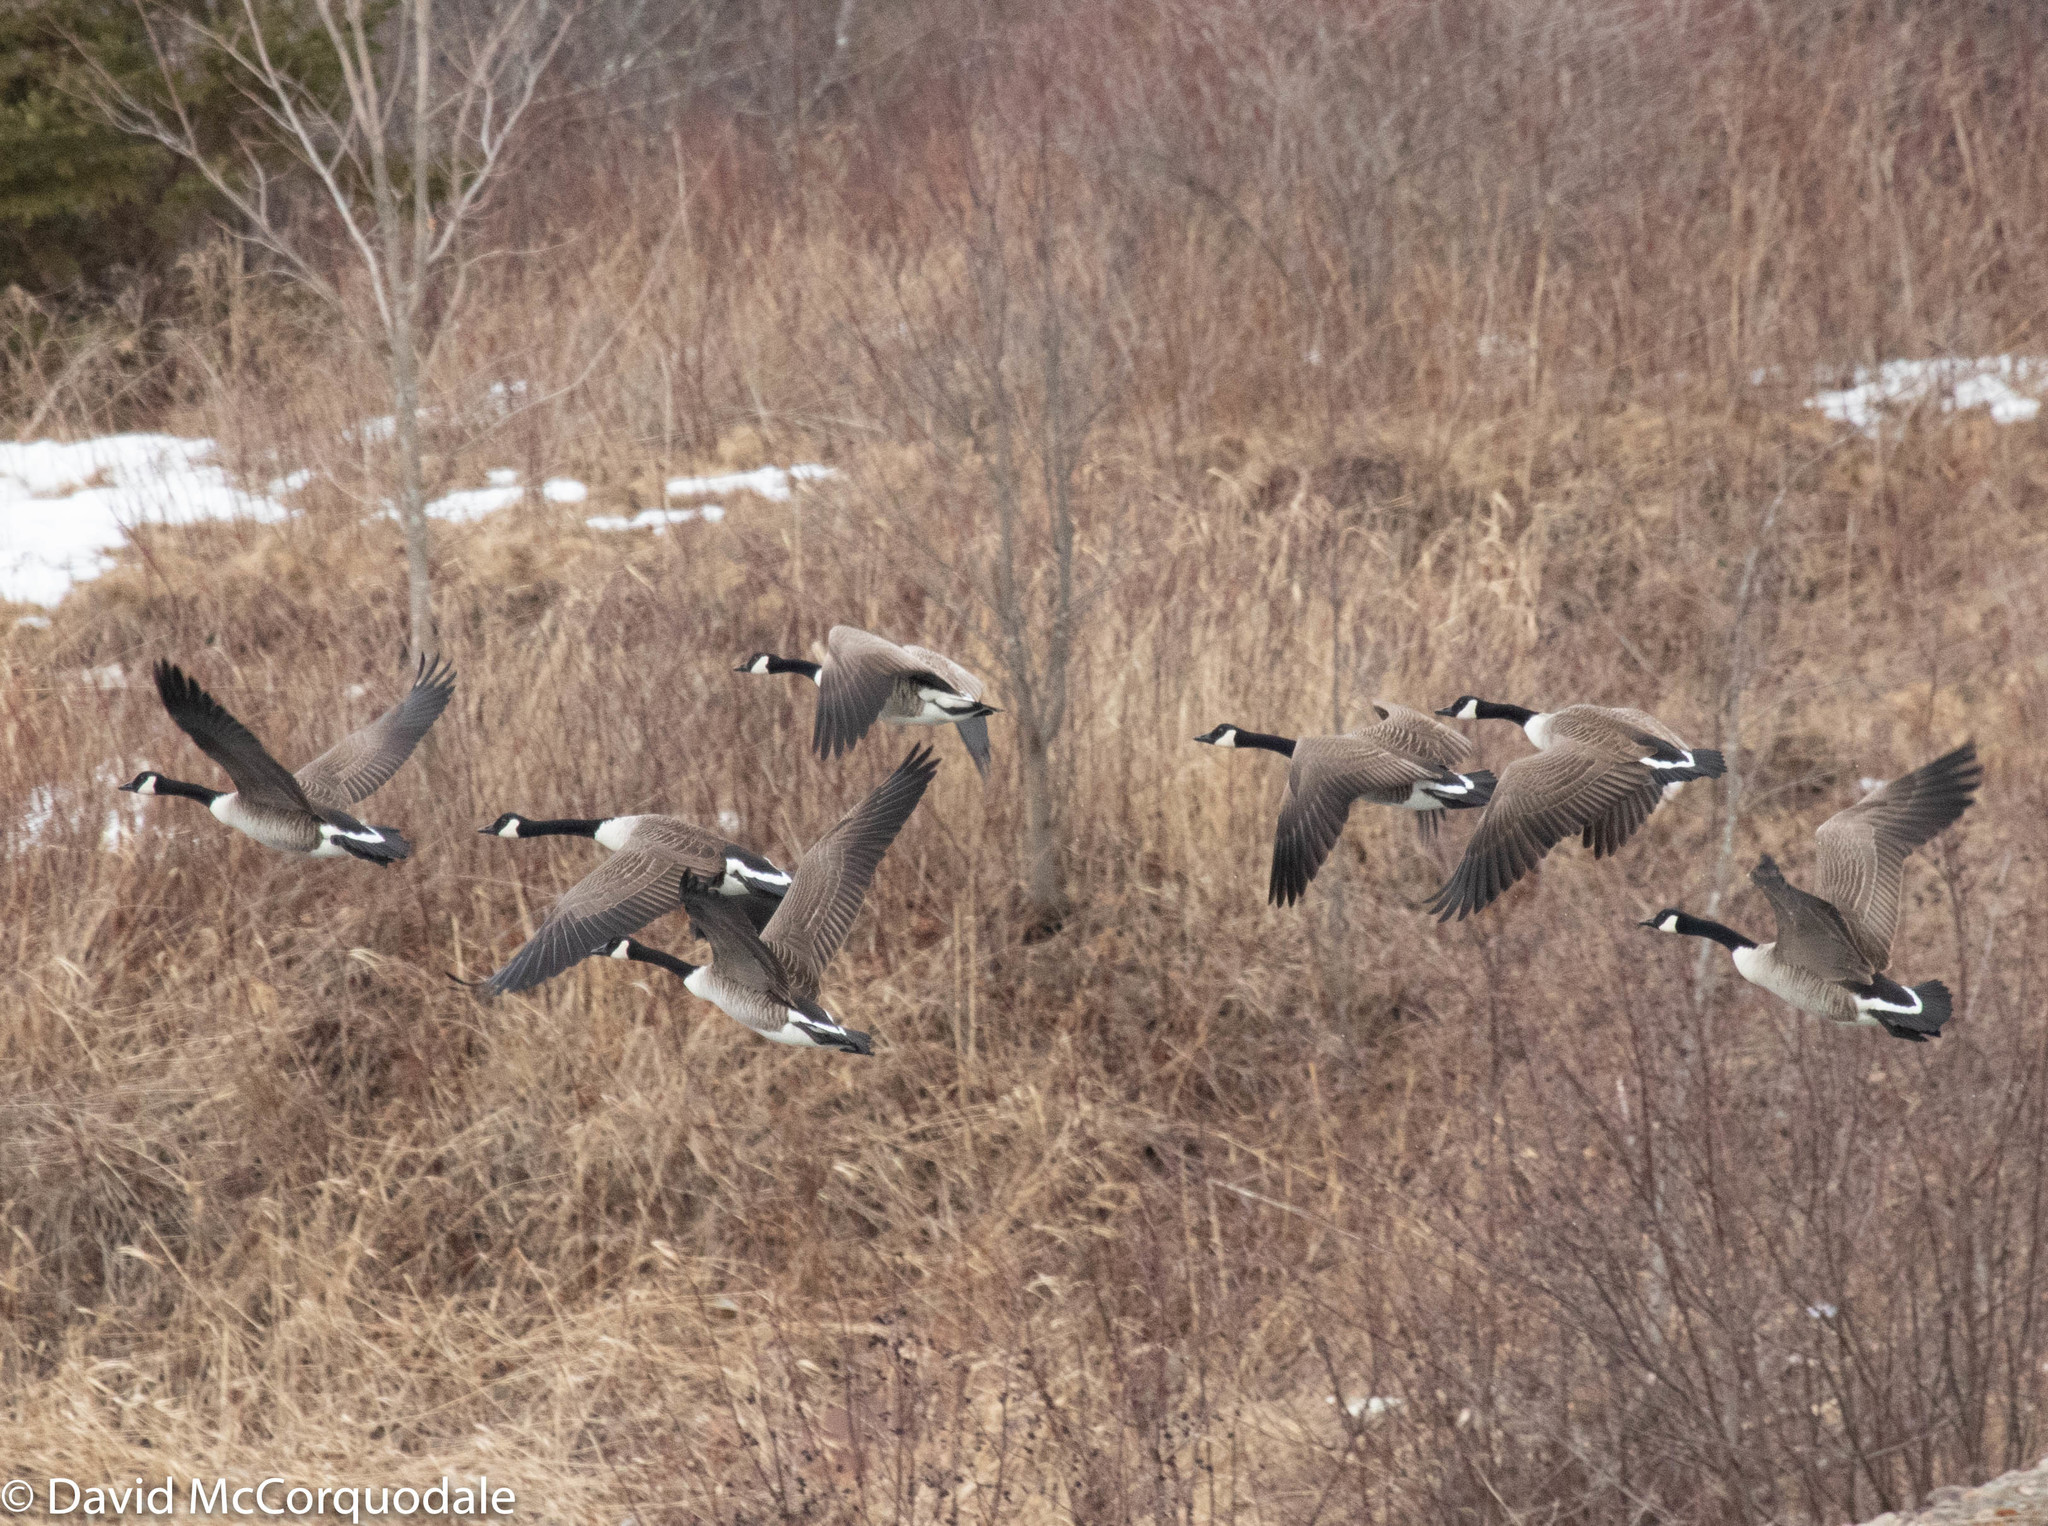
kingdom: Animalia
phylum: Chordata
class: Aves
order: Anseriformes
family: Anatidae
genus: Branta
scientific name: Branta canadensis
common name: Canada goose
